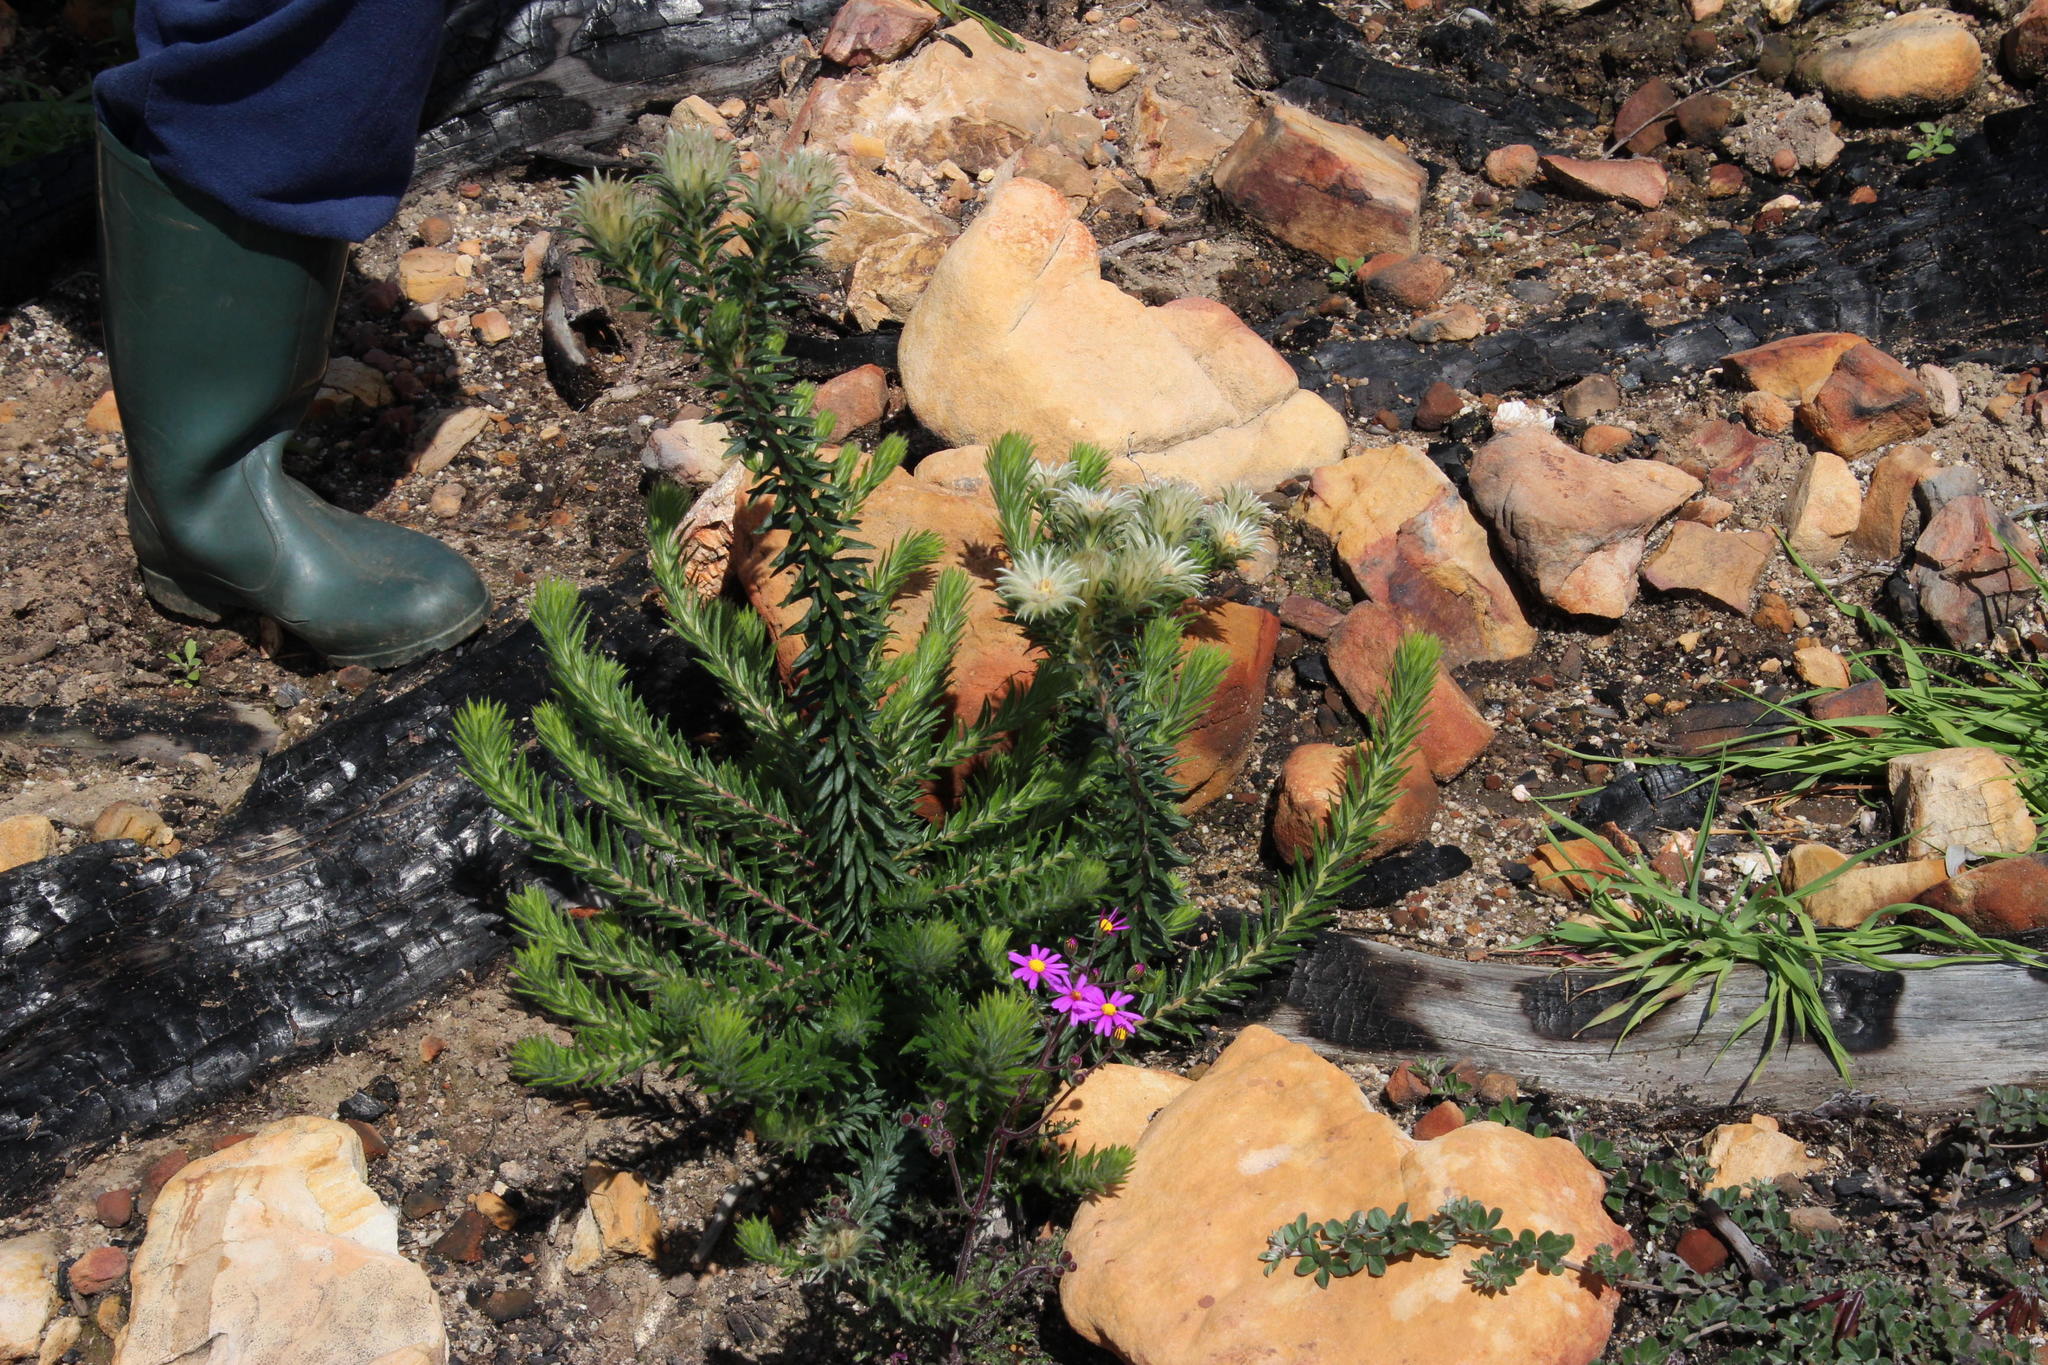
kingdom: Plantae
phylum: Tracheophyta
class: Magnoliopsida
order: Rosales
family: Rhamnaceae
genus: Phylica
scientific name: Phylica pubescens
